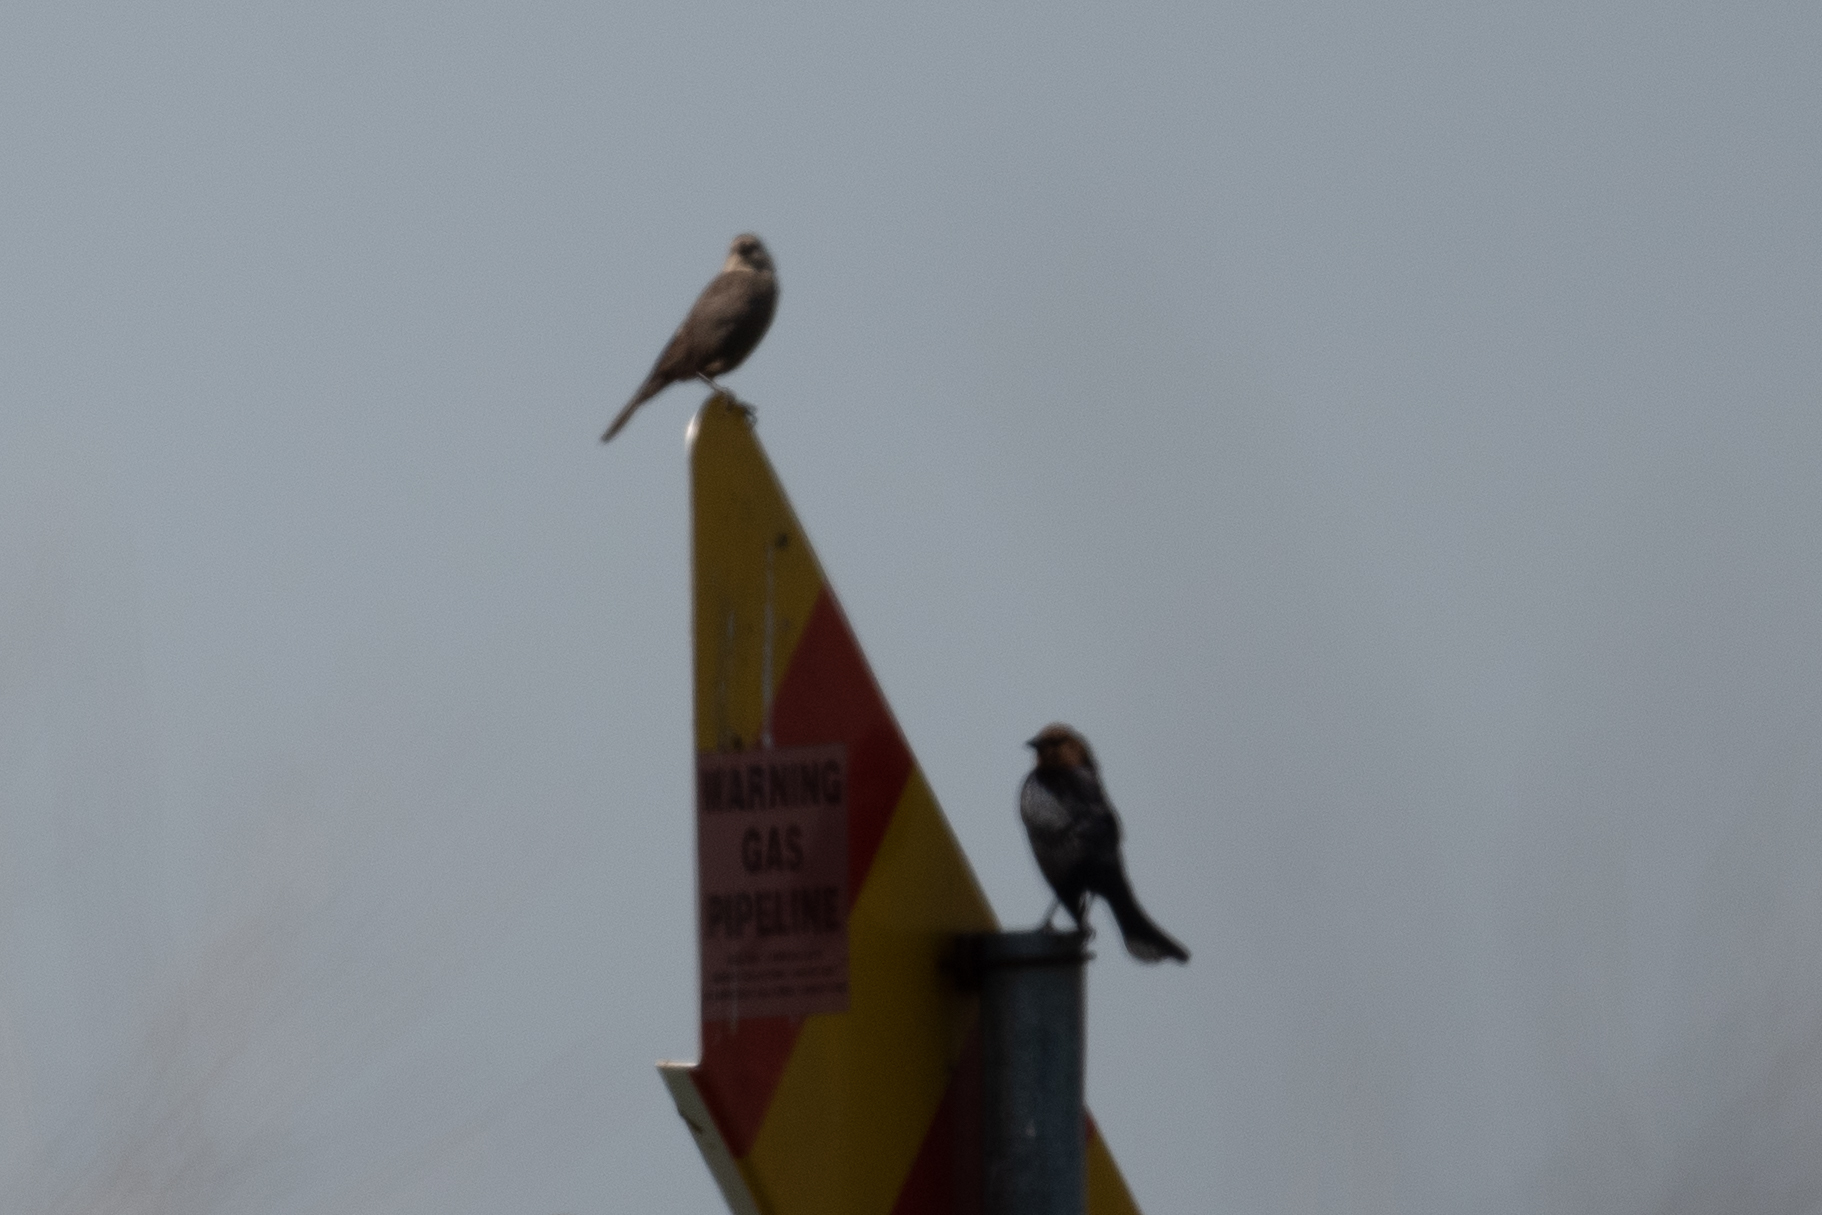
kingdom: Animalia
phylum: Chordata
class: Aves
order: Passeriformes
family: Icteridae
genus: Molothrus
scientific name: Molothrus ater
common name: Brown-headed cowbird
